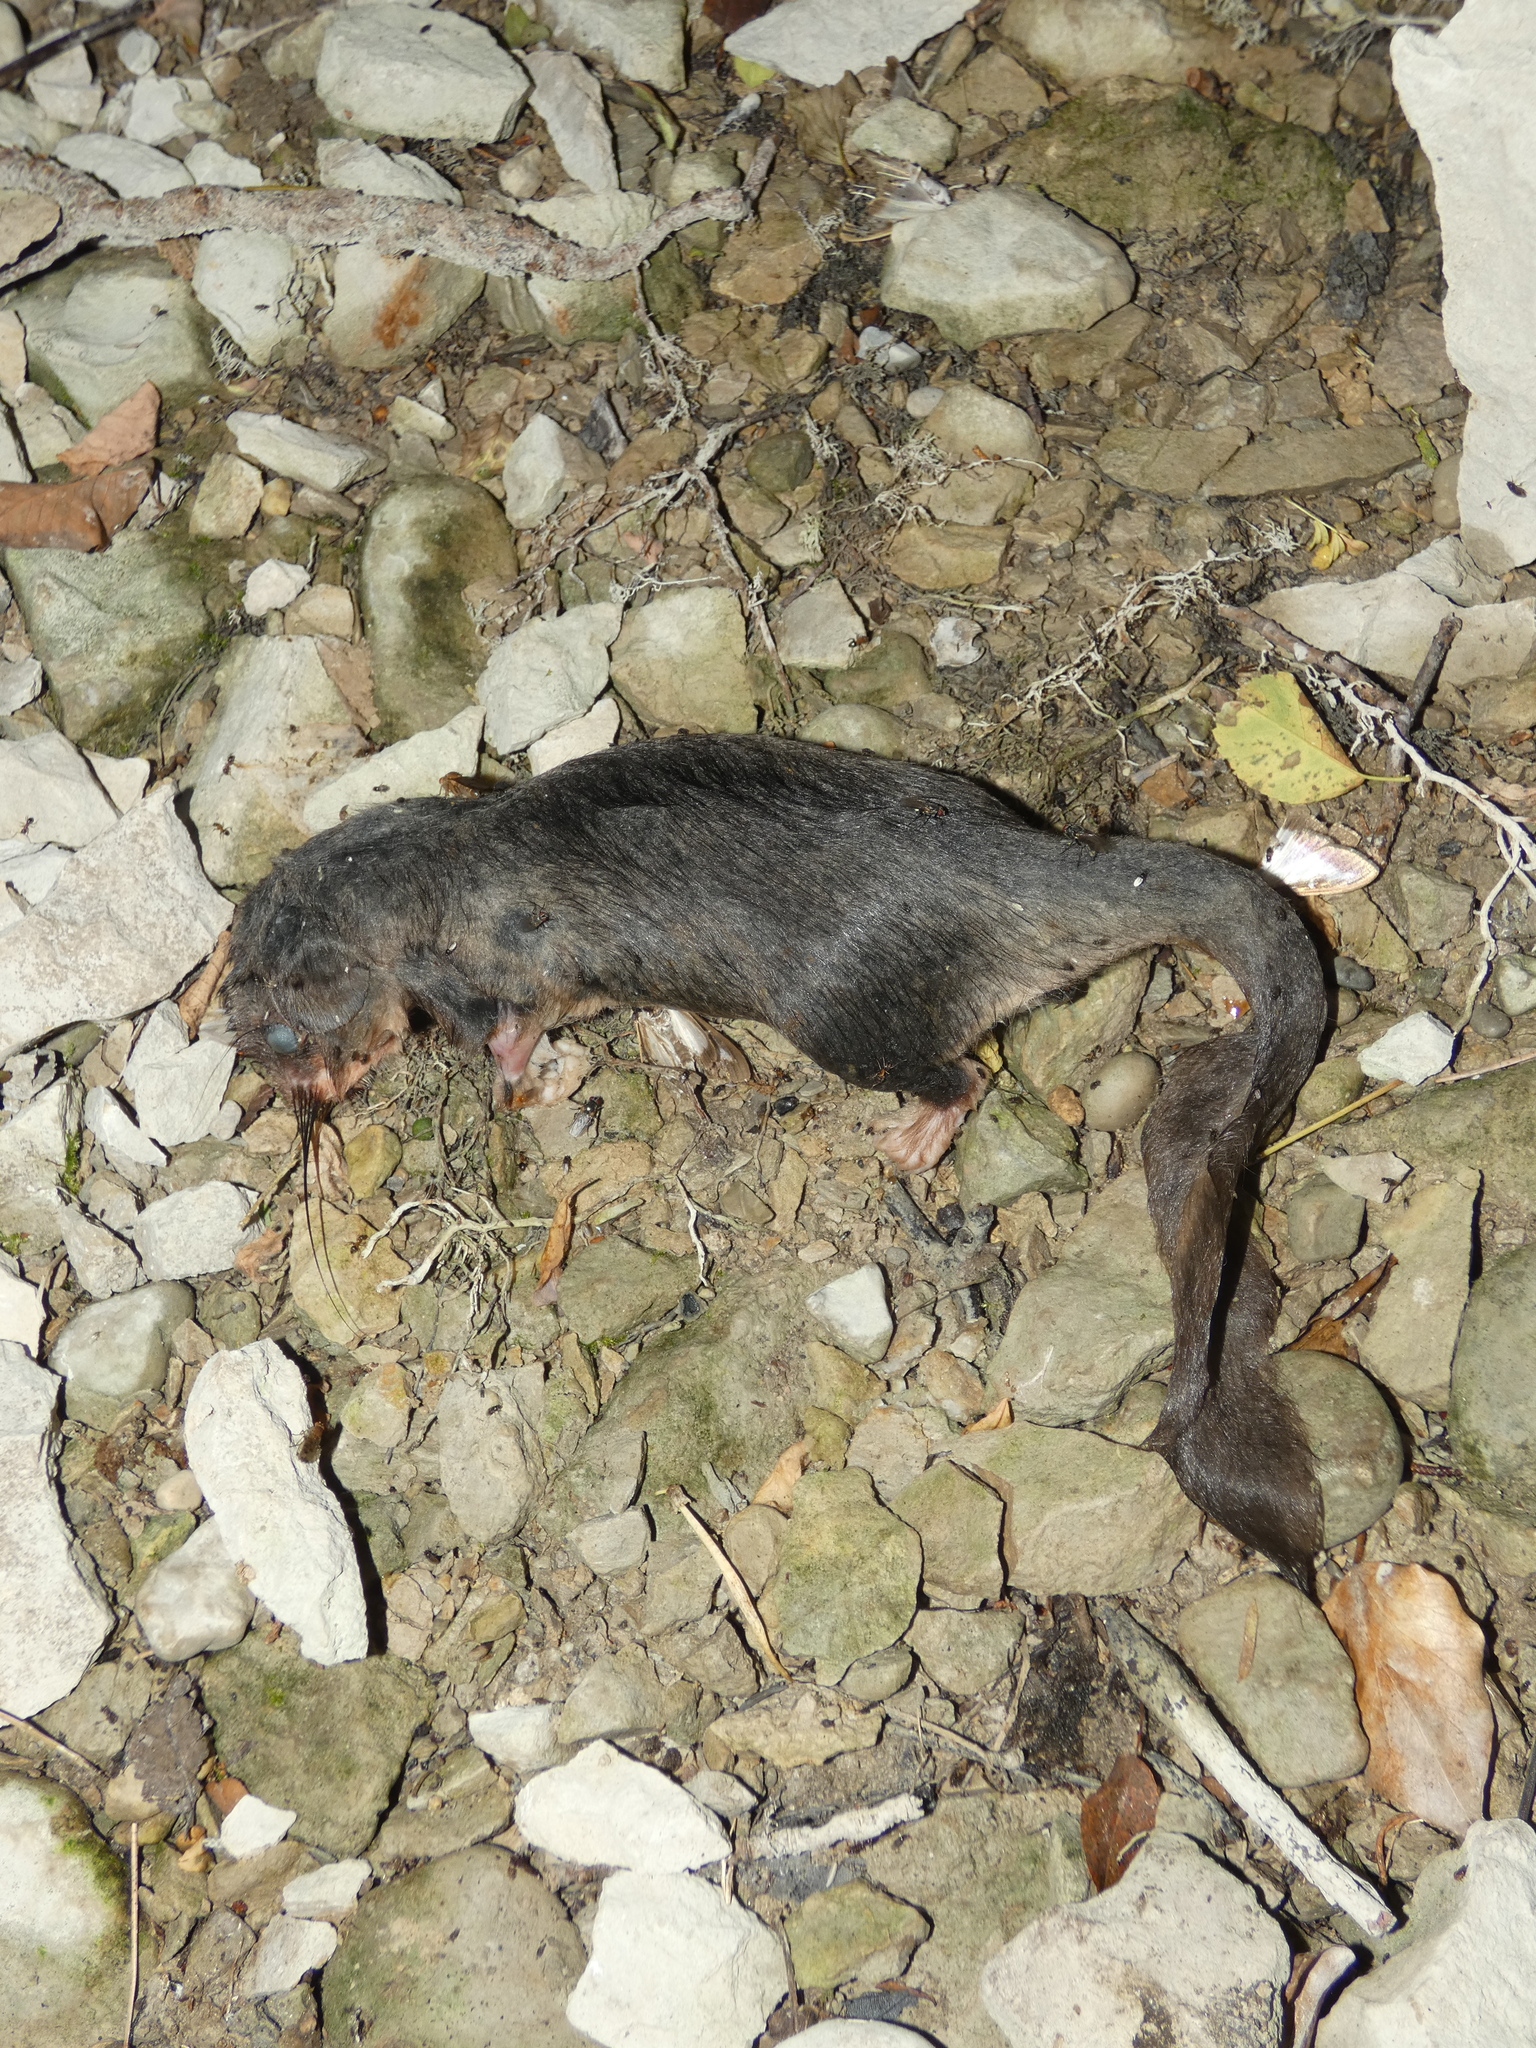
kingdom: Animalia
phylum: Chordata
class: Mammalia
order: Rodentia
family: Gliridae
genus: Glis
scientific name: Glis glis
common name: Fat dormouse
